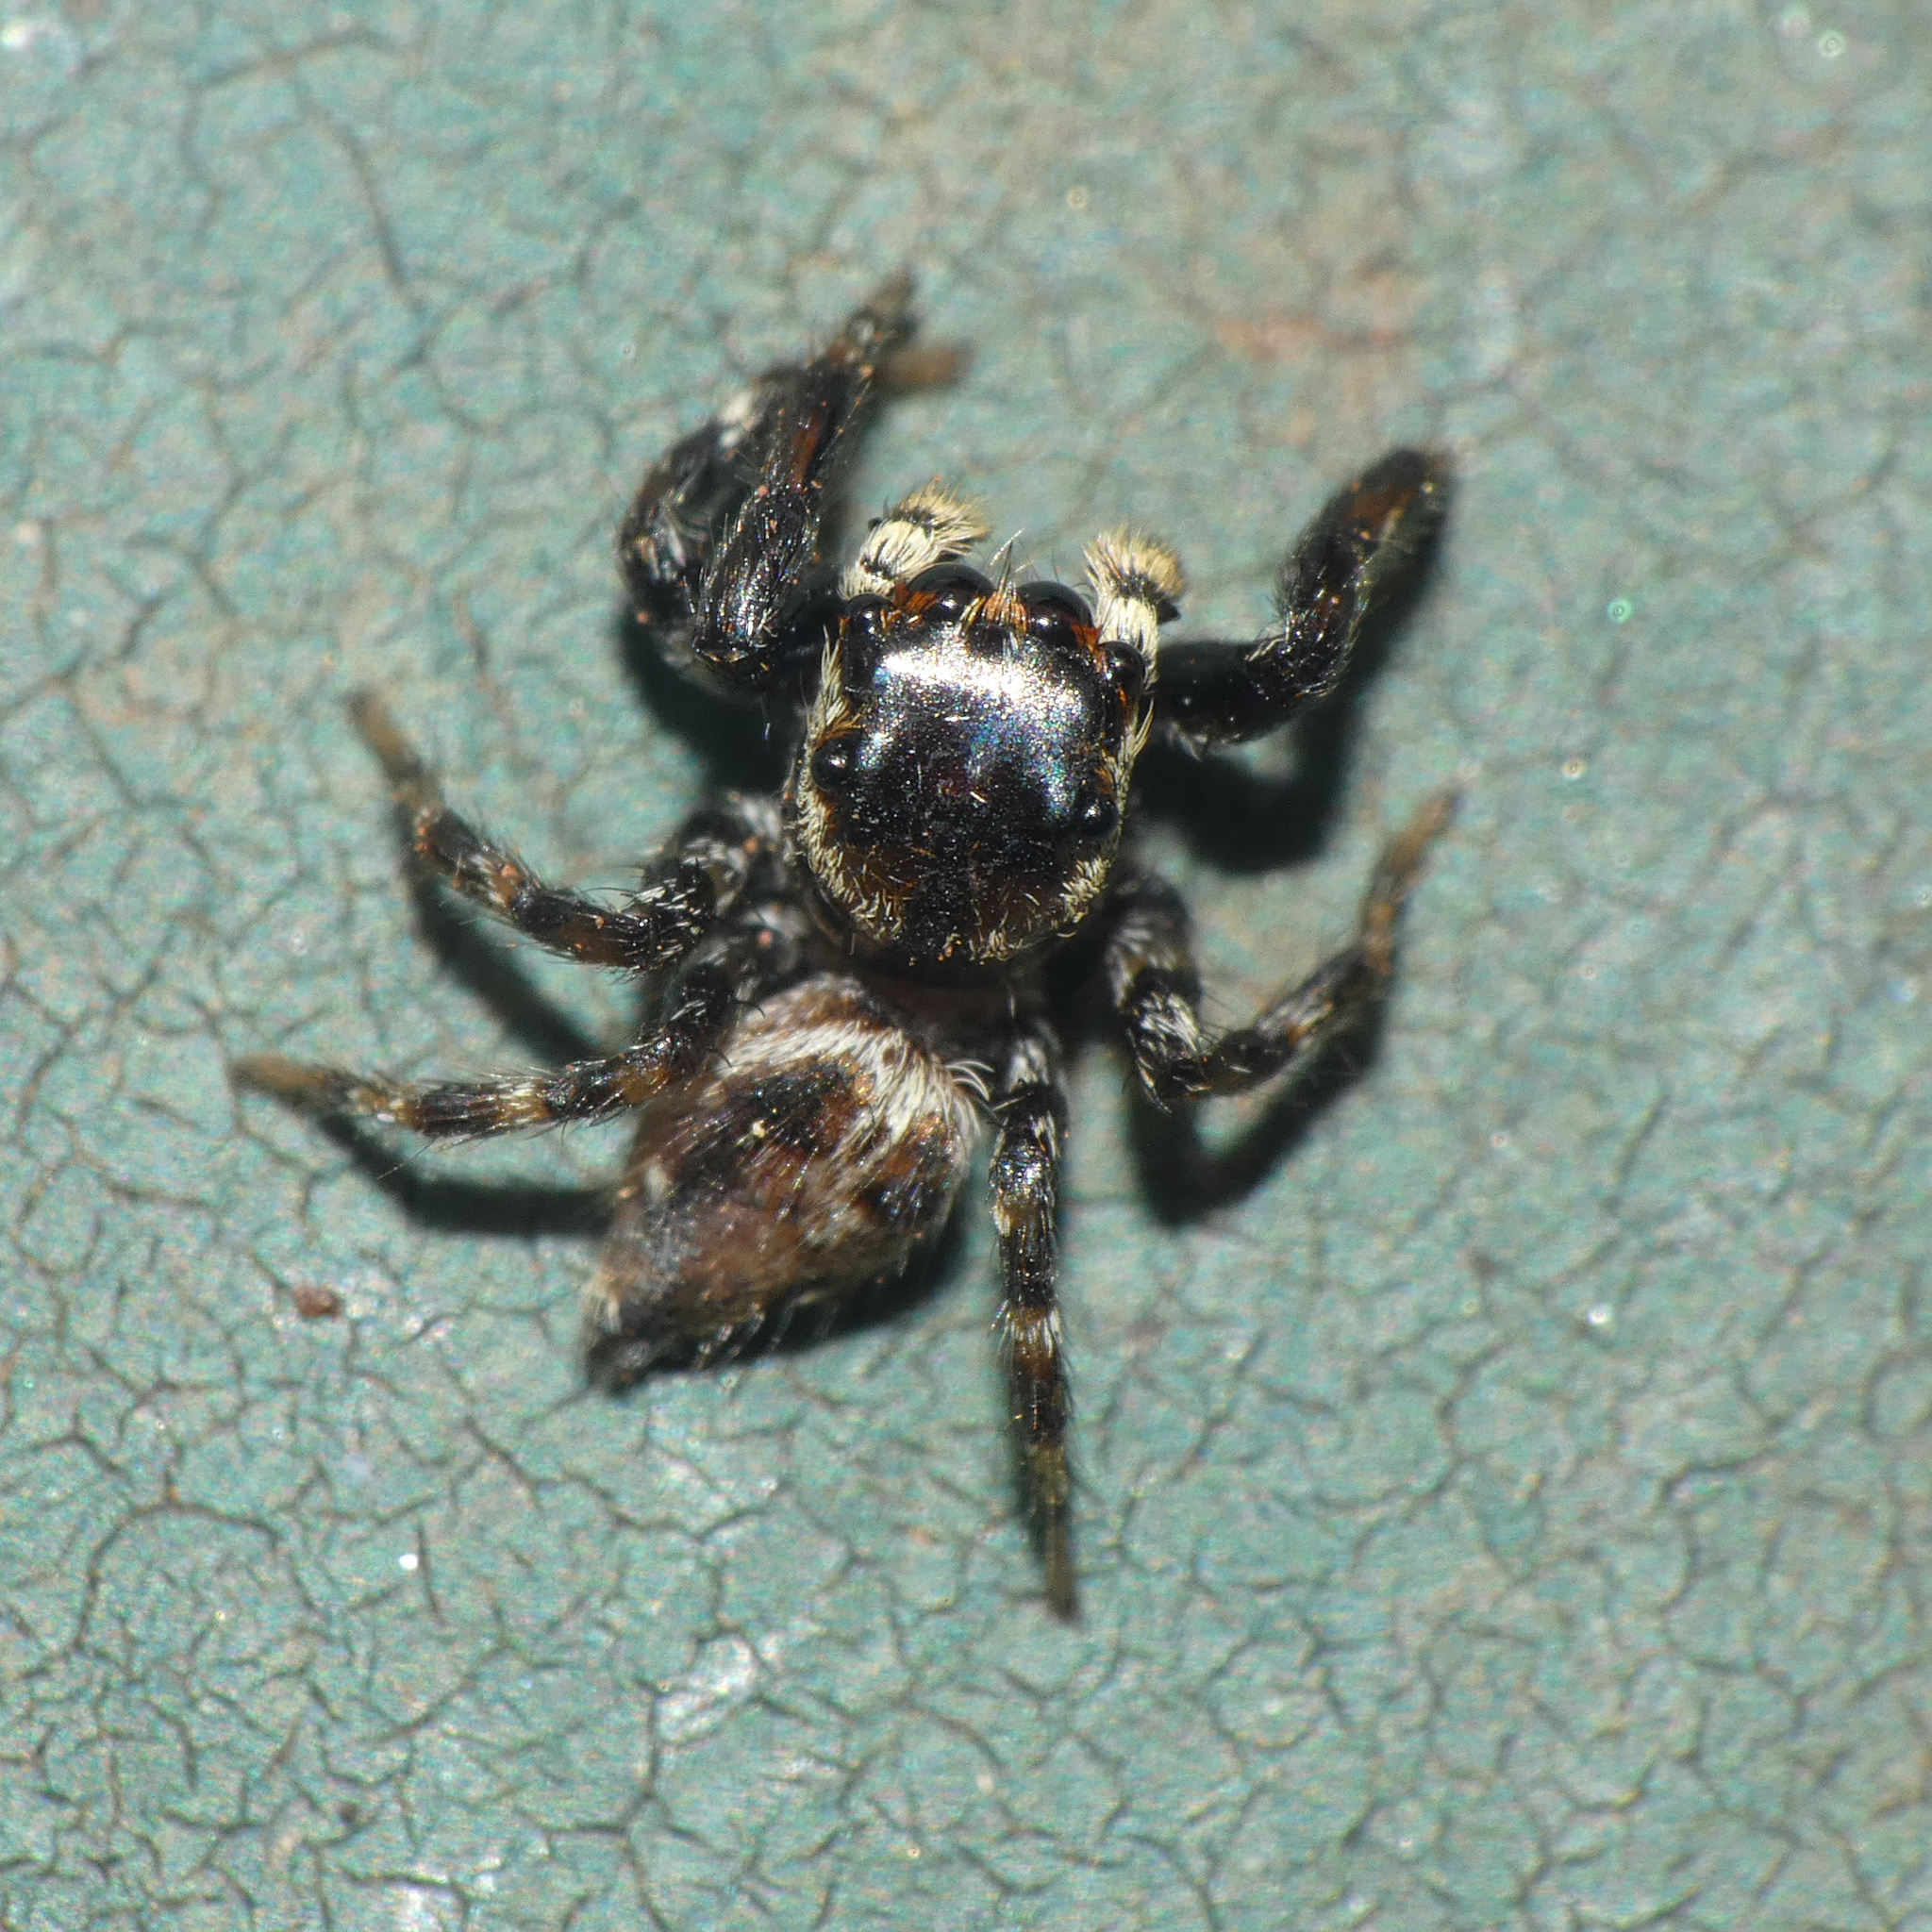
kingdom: Animalia
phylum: Arthropoda
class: Arachnida
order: Araneae
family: Salticidae
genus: Hasarius
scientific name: Hasarius adansoni
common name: Jumping spider
